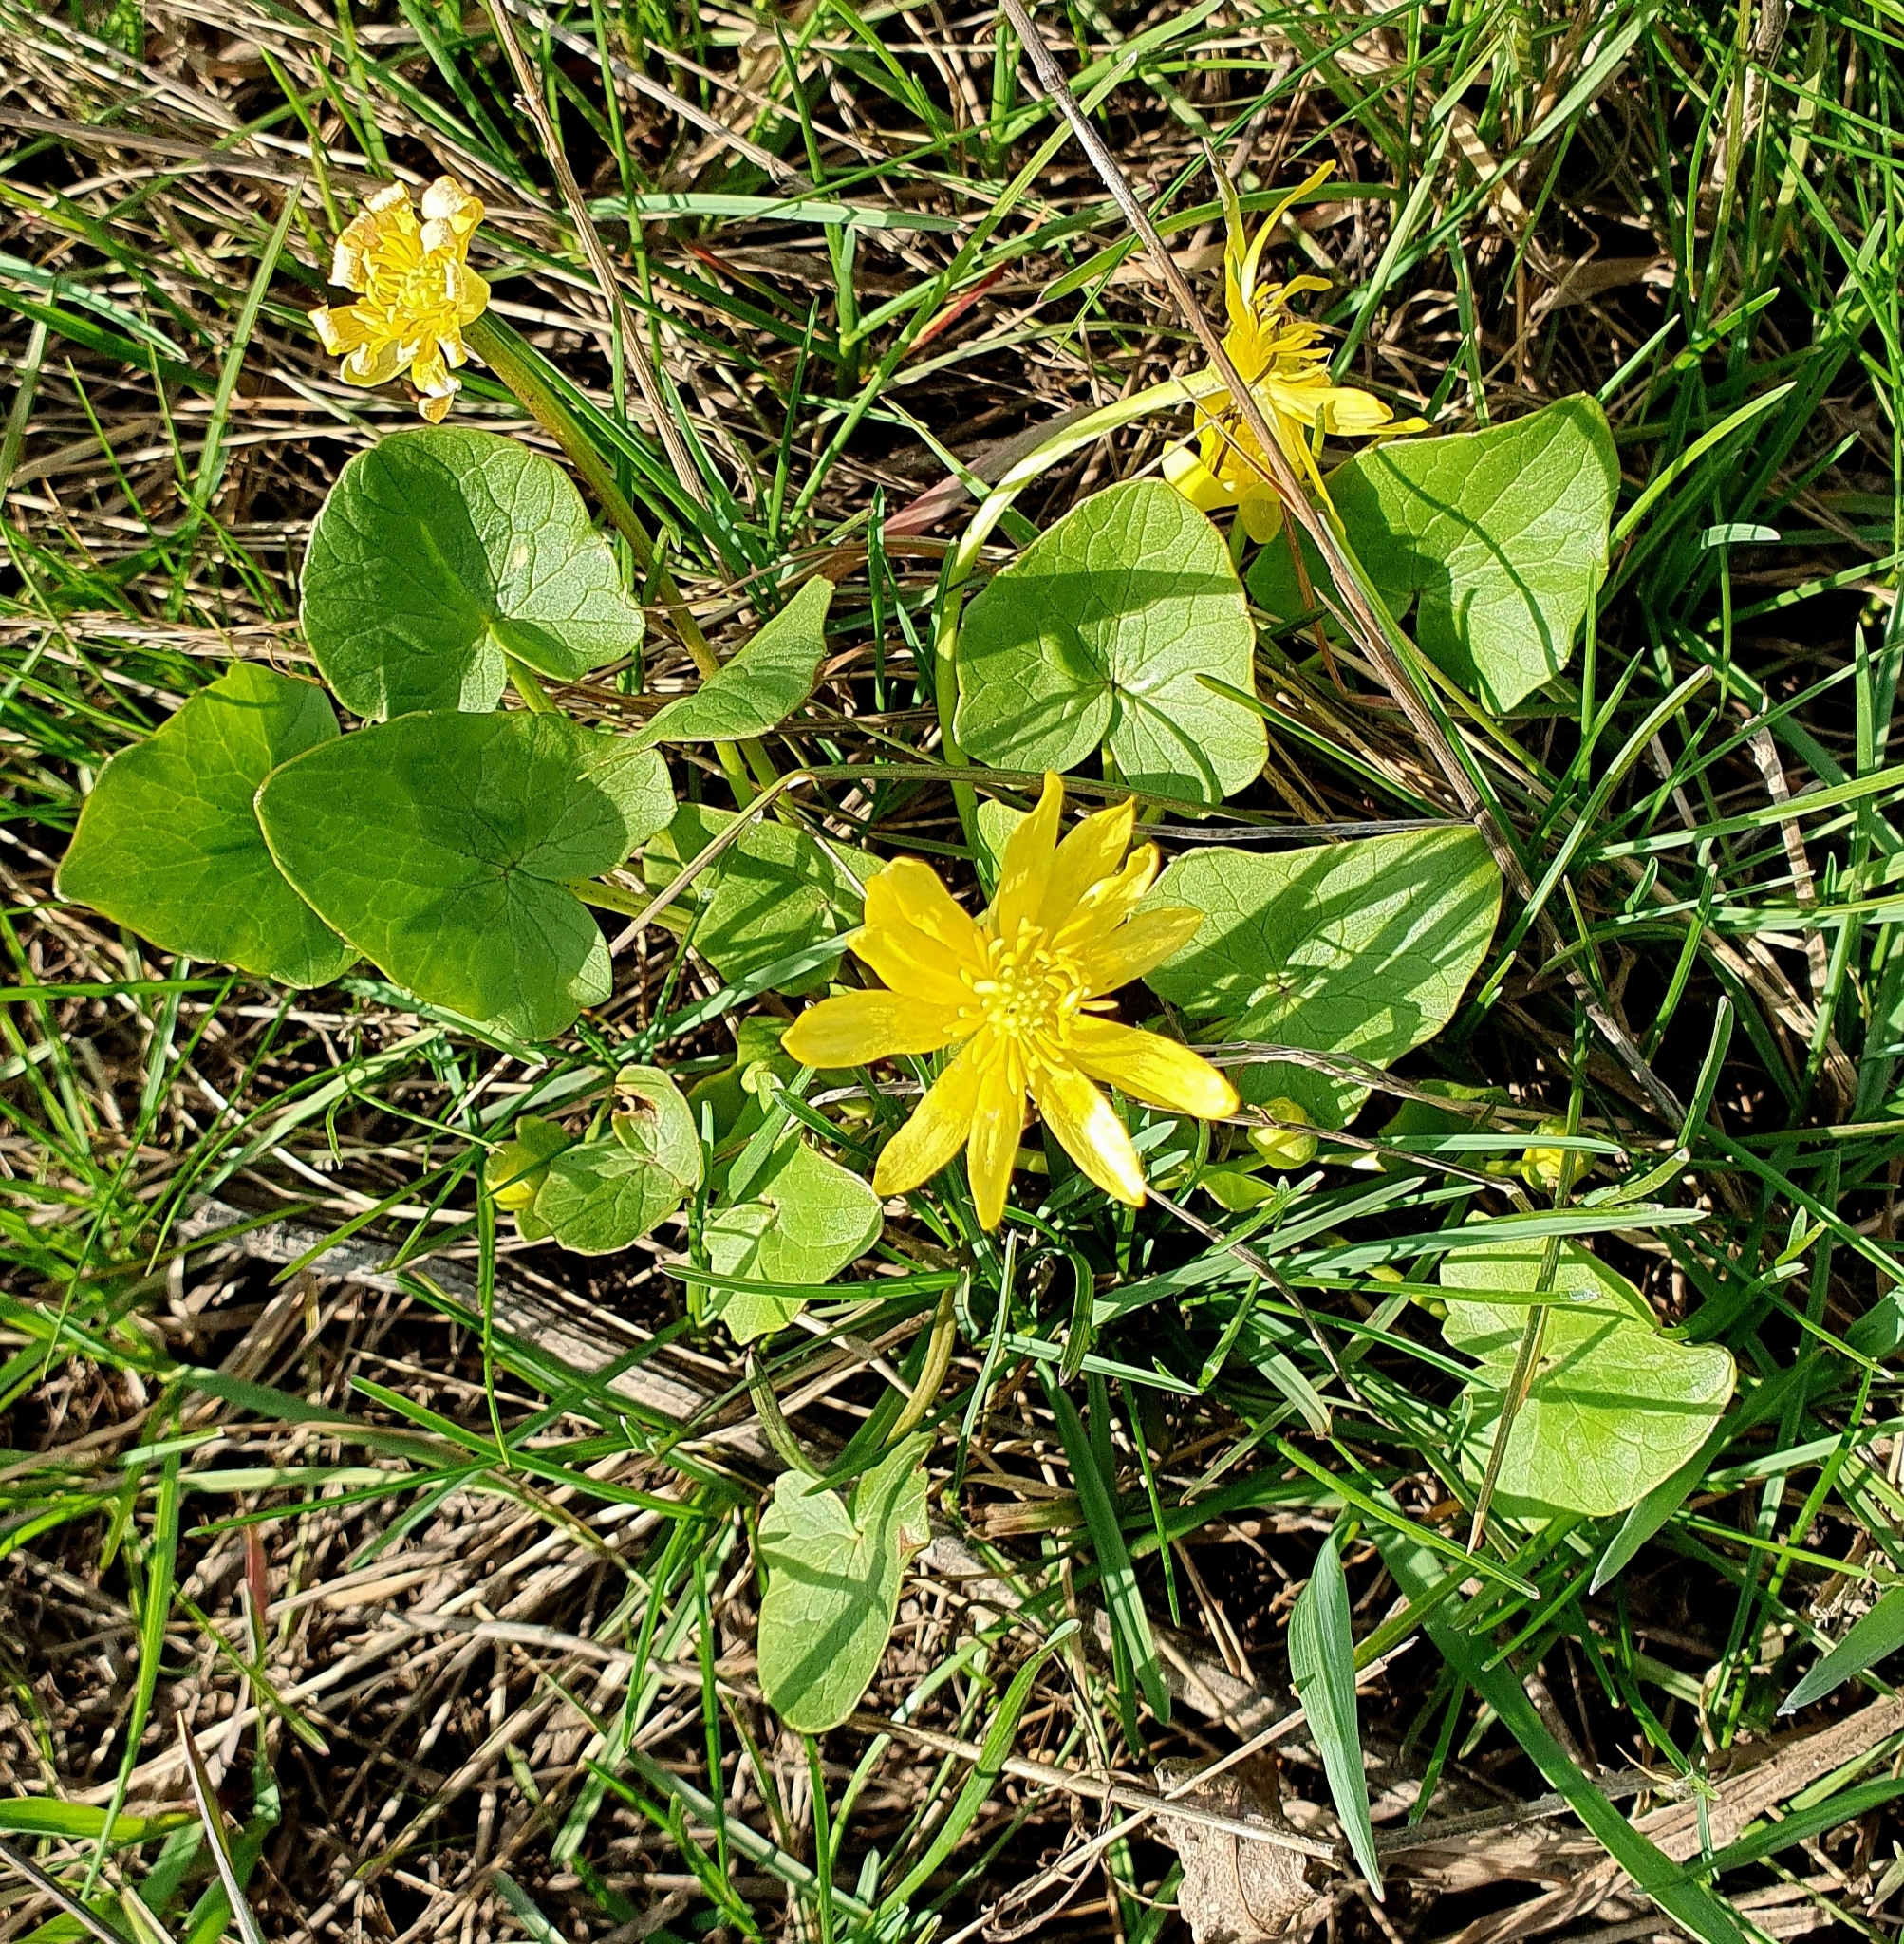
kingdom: Plantae
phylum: Tracheophyta
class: Magnoliopsida
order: Ranunculales
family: Ranunculaceae
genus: Ficaria
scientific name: Ficaria verna
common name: Lesser celandine
